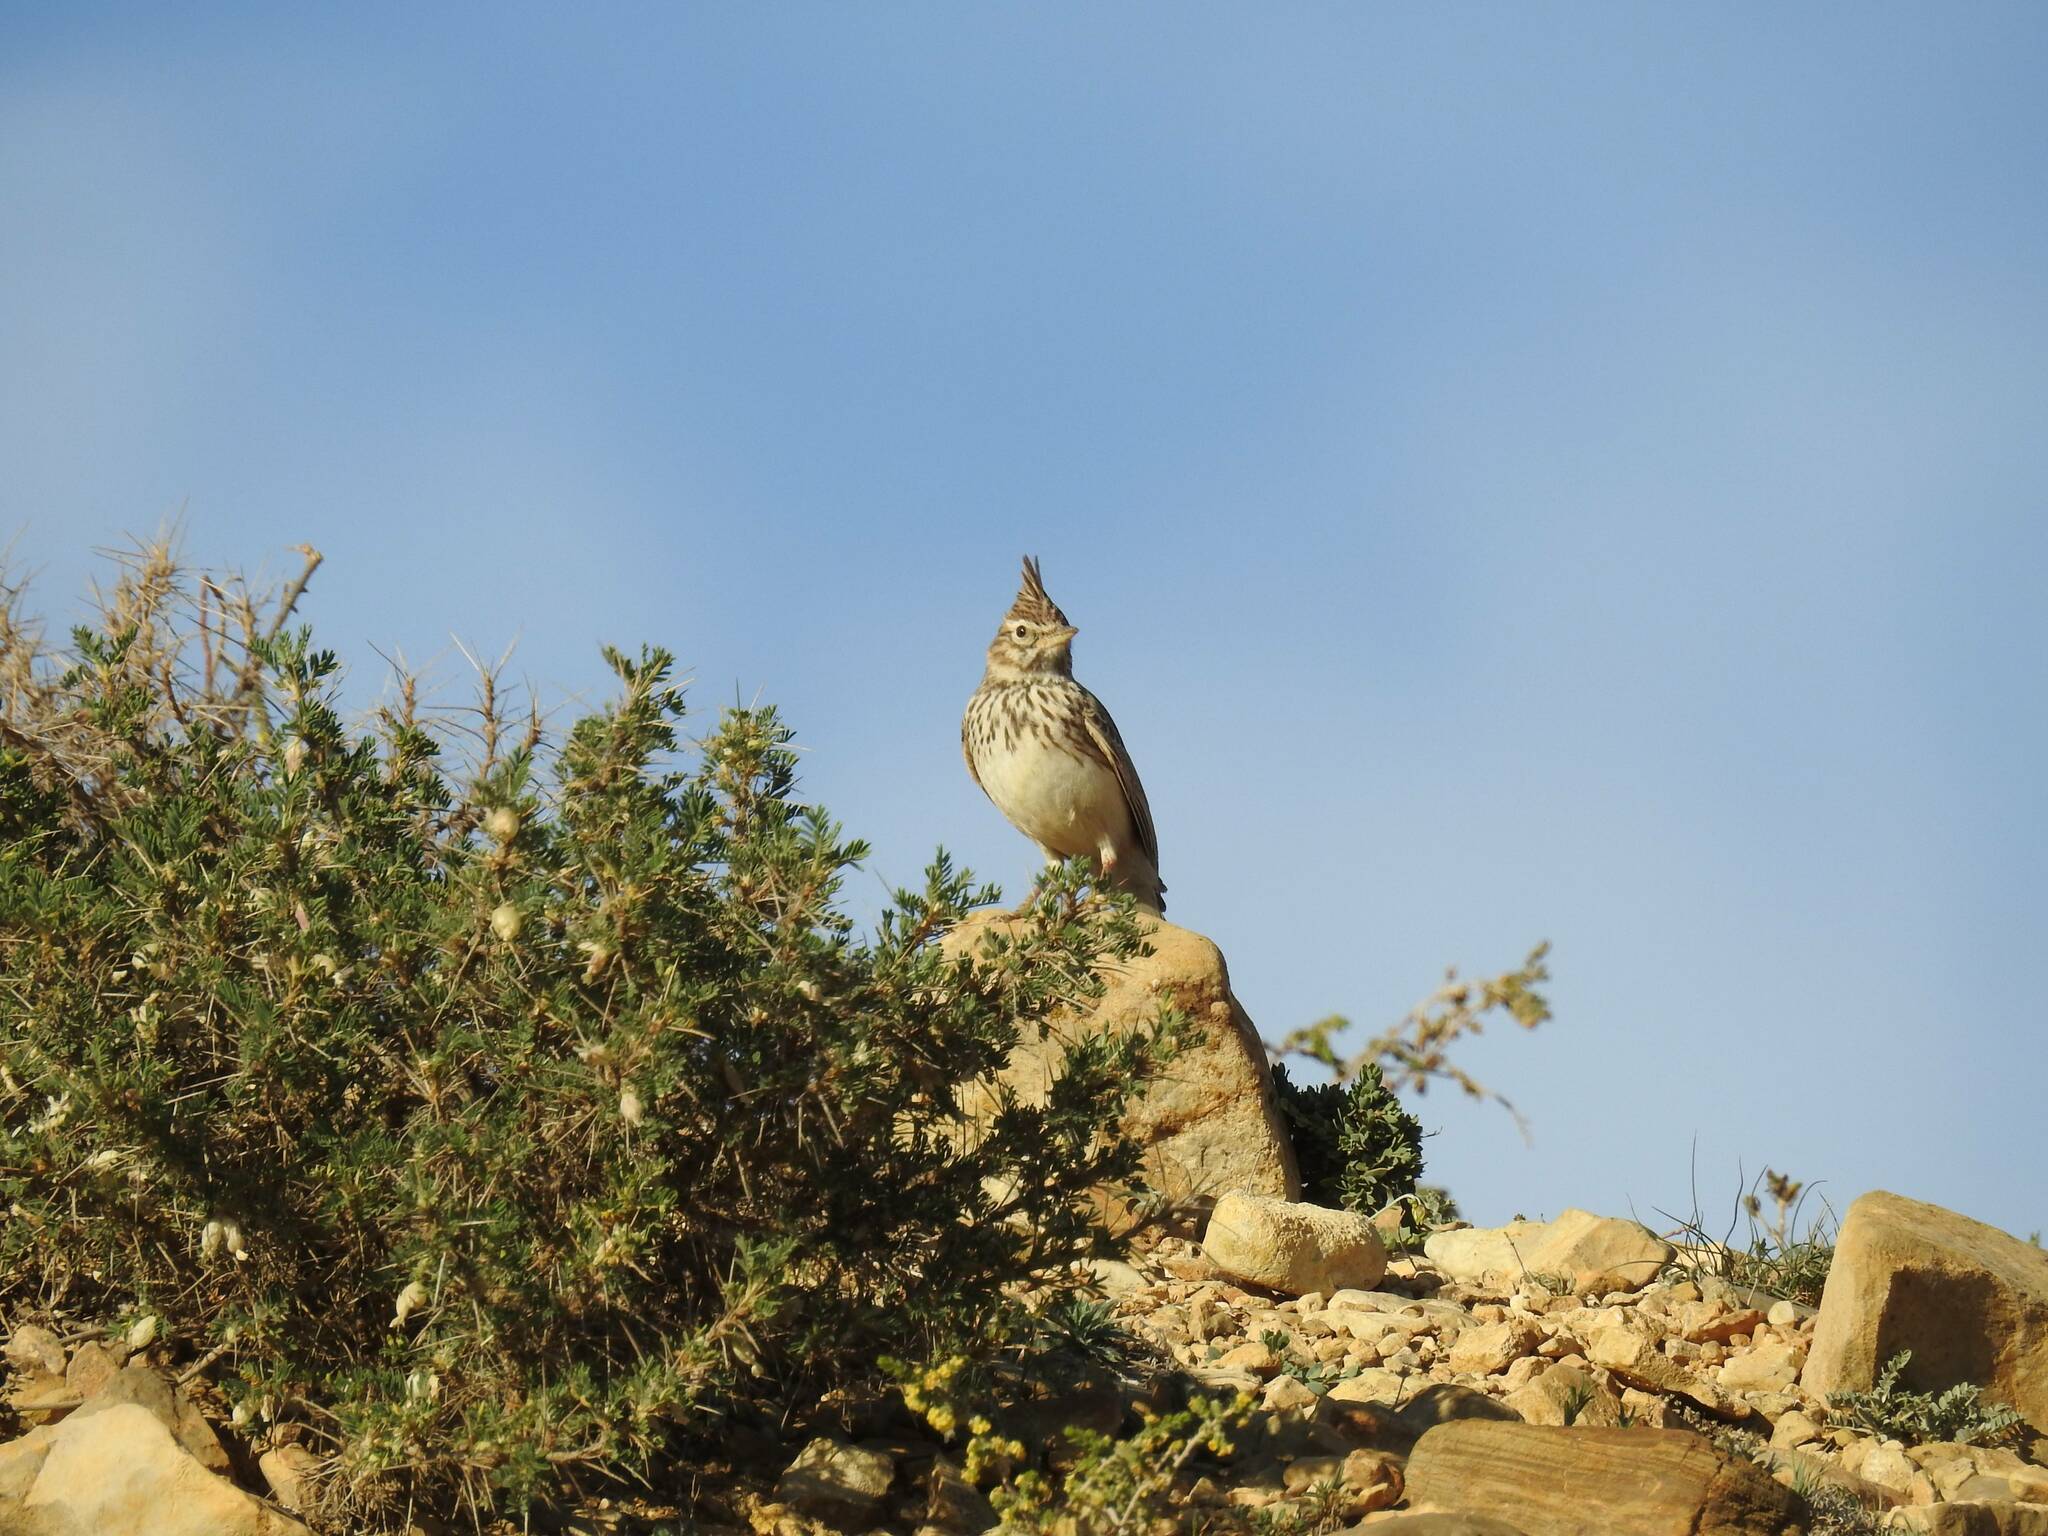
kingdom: Animalia
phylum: Chordata
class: Aves
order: Passeriformes
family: Alaudidae
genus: Galerida
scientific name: Galerida theklae
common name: Thekla lark
